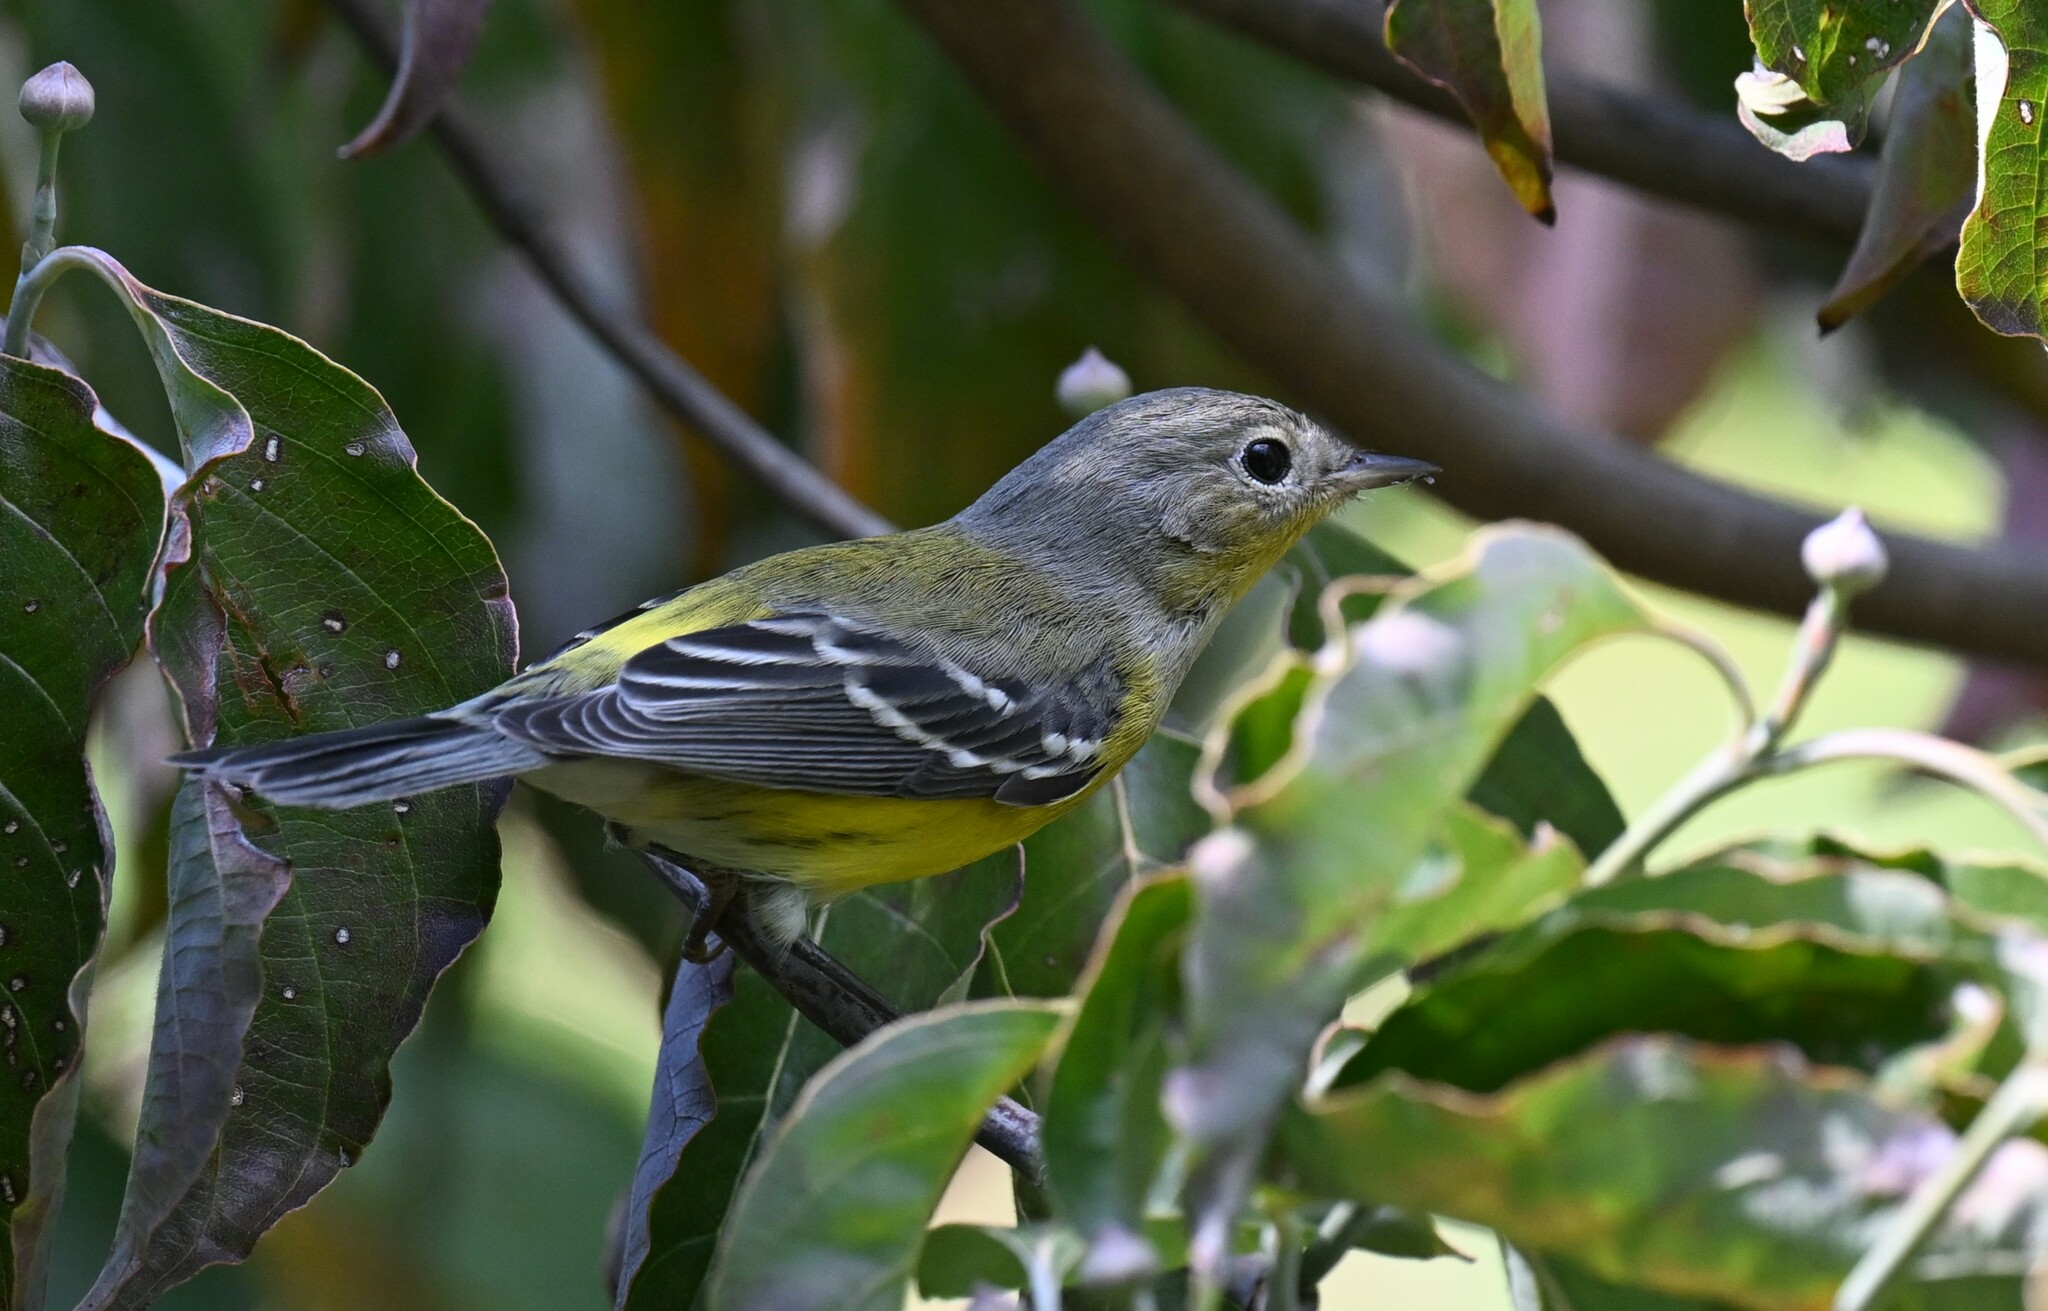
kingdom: Animalia
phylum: Chordata
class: Aves
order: Passeriformes
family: Parulidae
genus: Setophaga
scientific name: Setophaga magnolia
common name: Magnolia warbler
